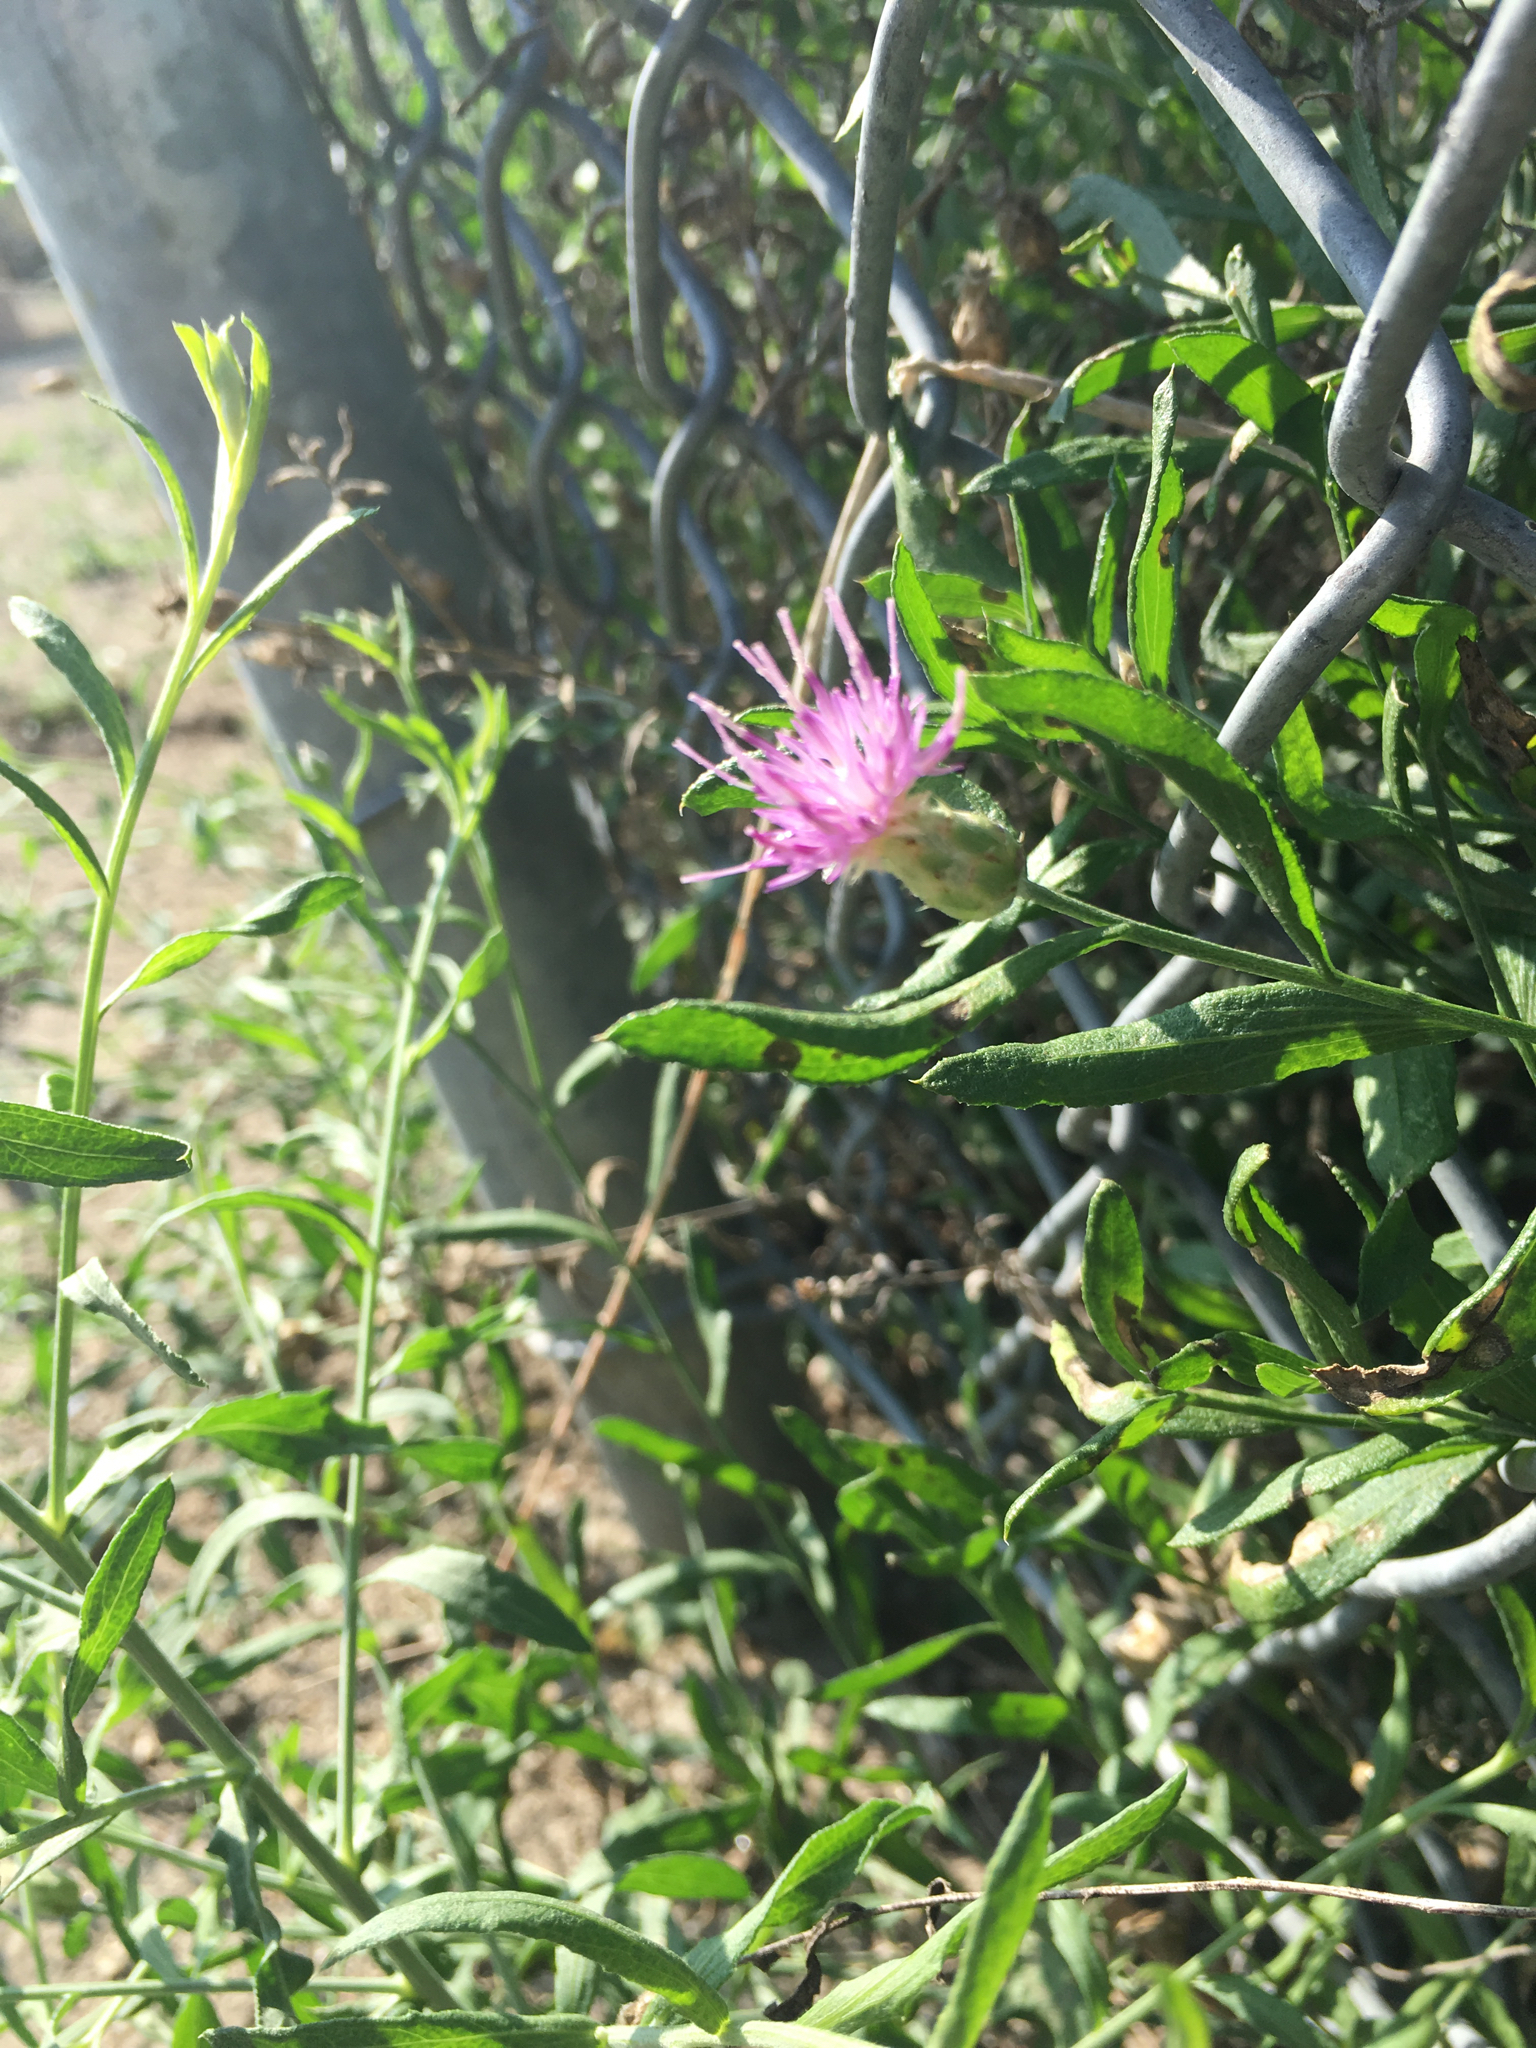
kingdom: Plantae
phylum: Tracheophyta
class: Magnoliopsida
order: Asterales
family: Asteraceae
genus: Leuzea
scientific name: Leuzea repens
